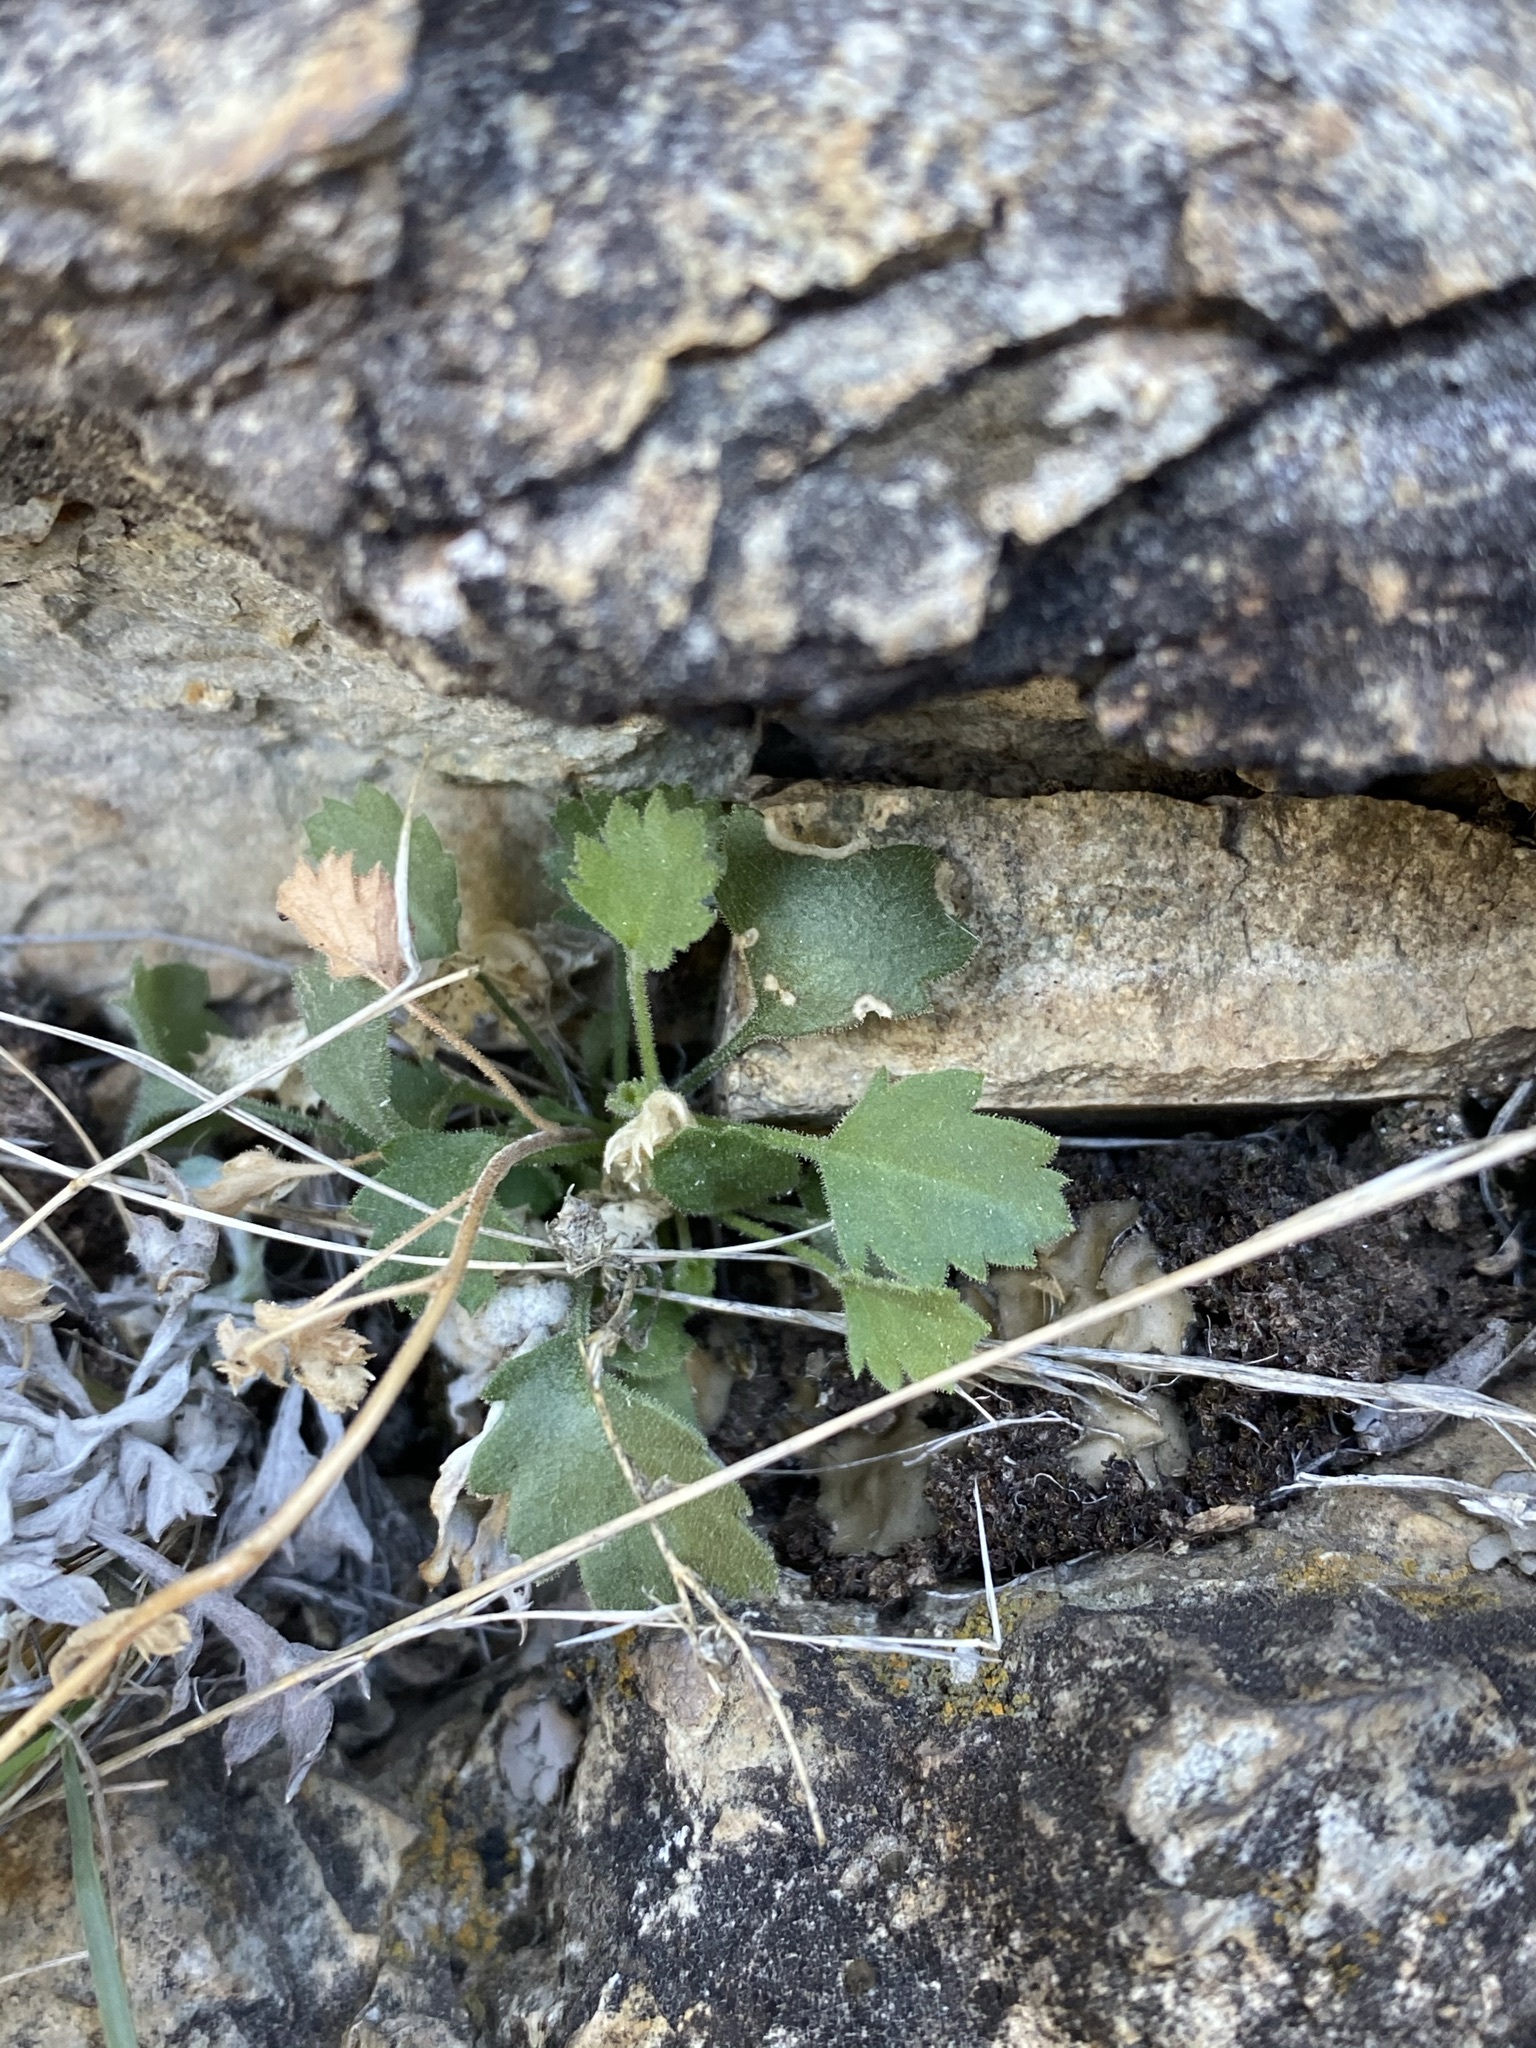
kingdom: Plantae
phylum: Tracheophyta
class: Magnoliopsida
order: Ericales
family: Polemoniaceae
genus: Giliastrum
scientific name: Giliastrum incisum
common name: Splitleaf gilia
